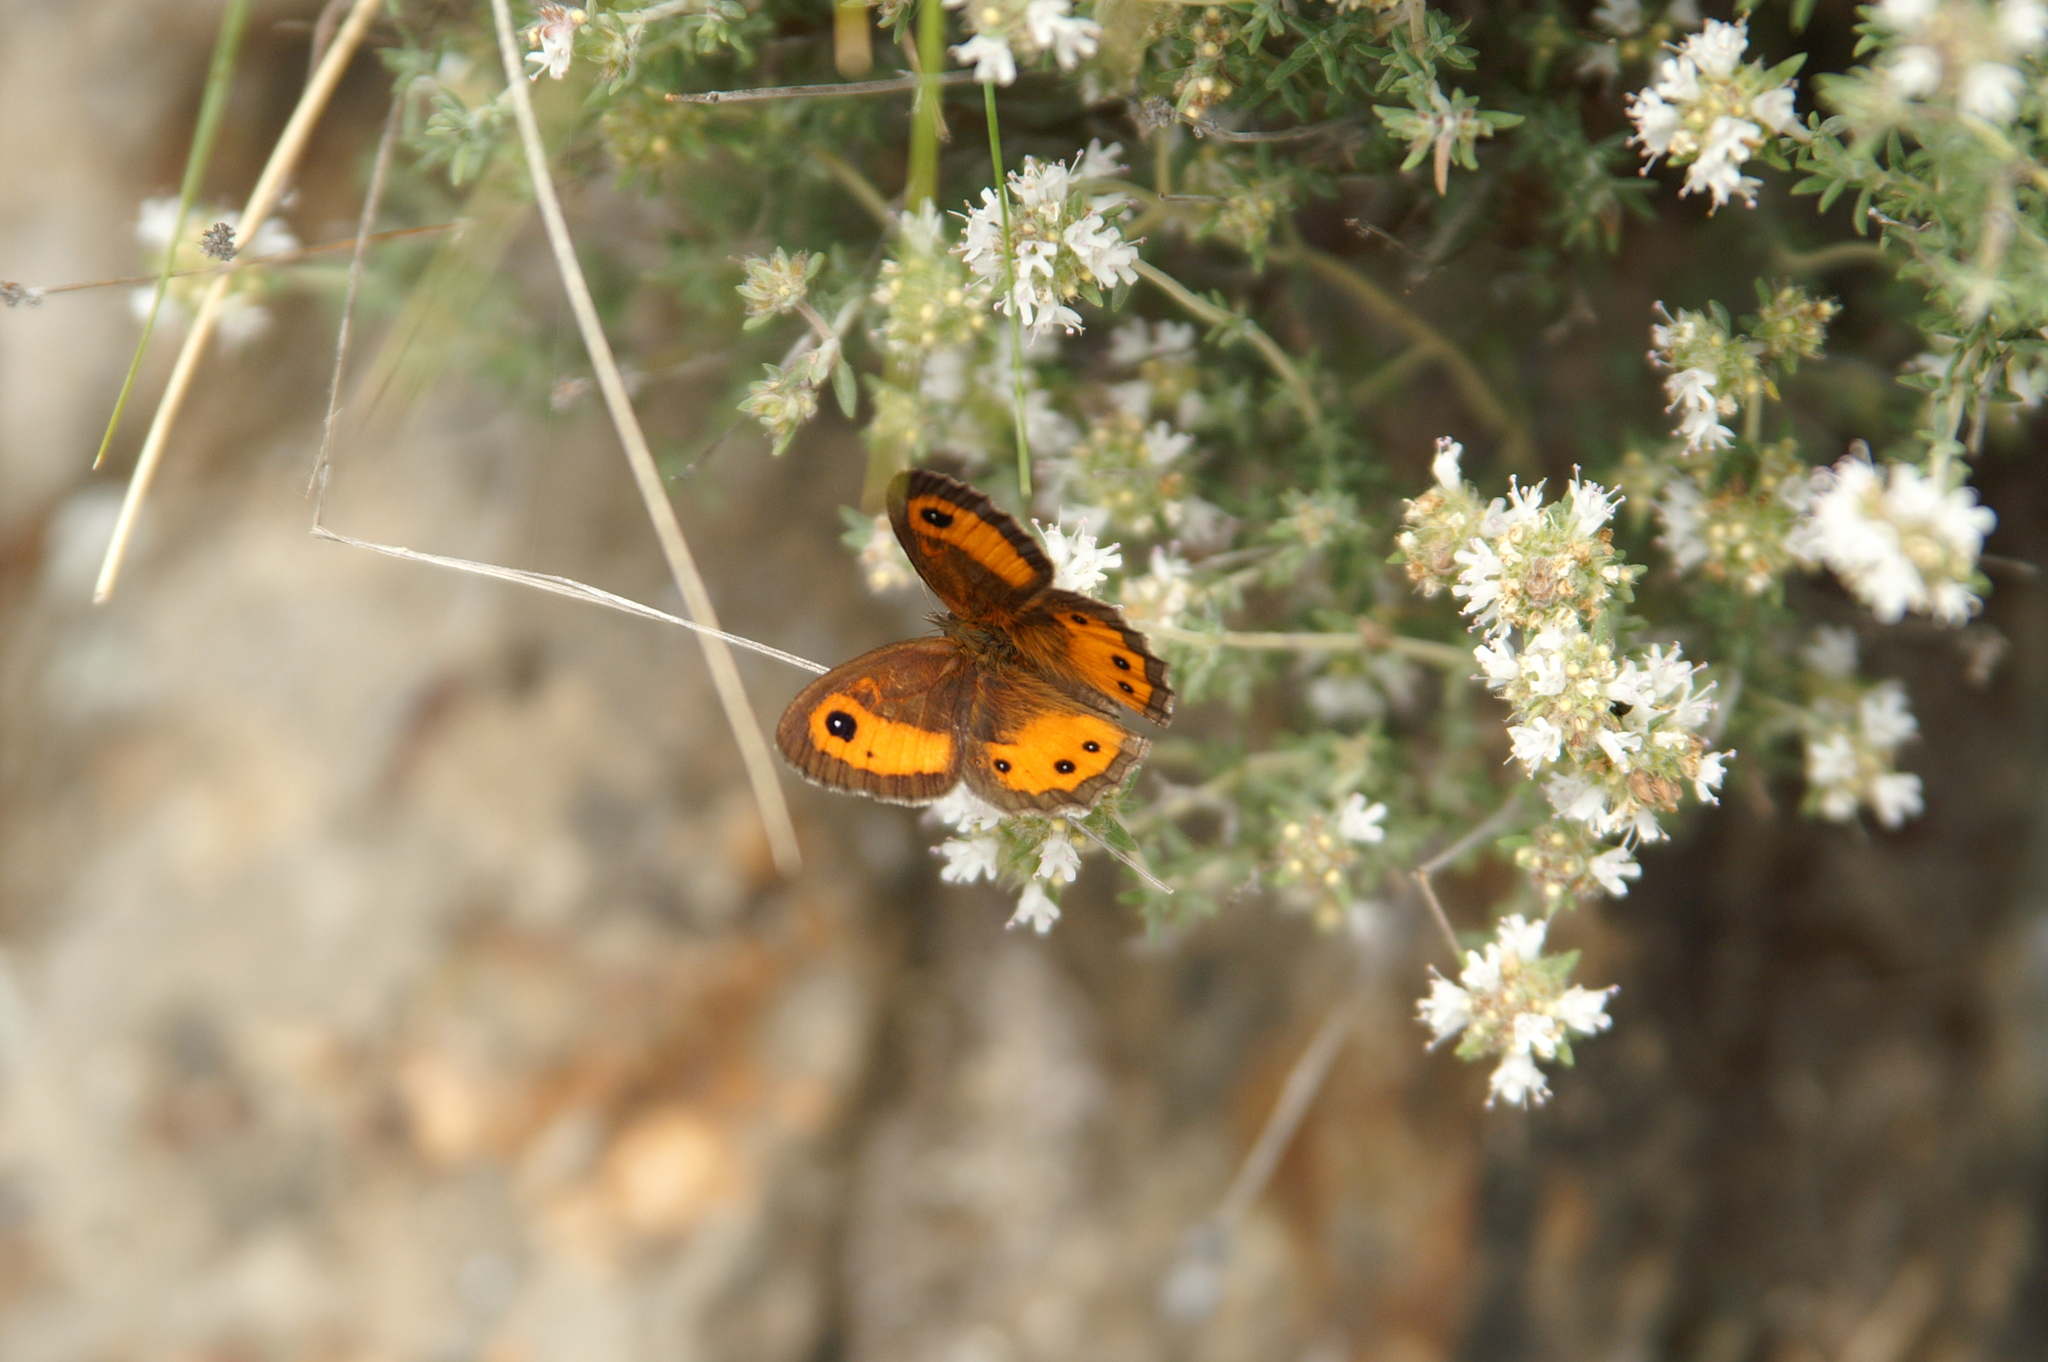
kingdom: Animalia
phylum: Arthropoda
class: Insecta
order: Lepidoptera
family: Nymphalidae
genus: Pyronia
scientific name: Pyronia bathseba
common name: Spanish gatekeeper
